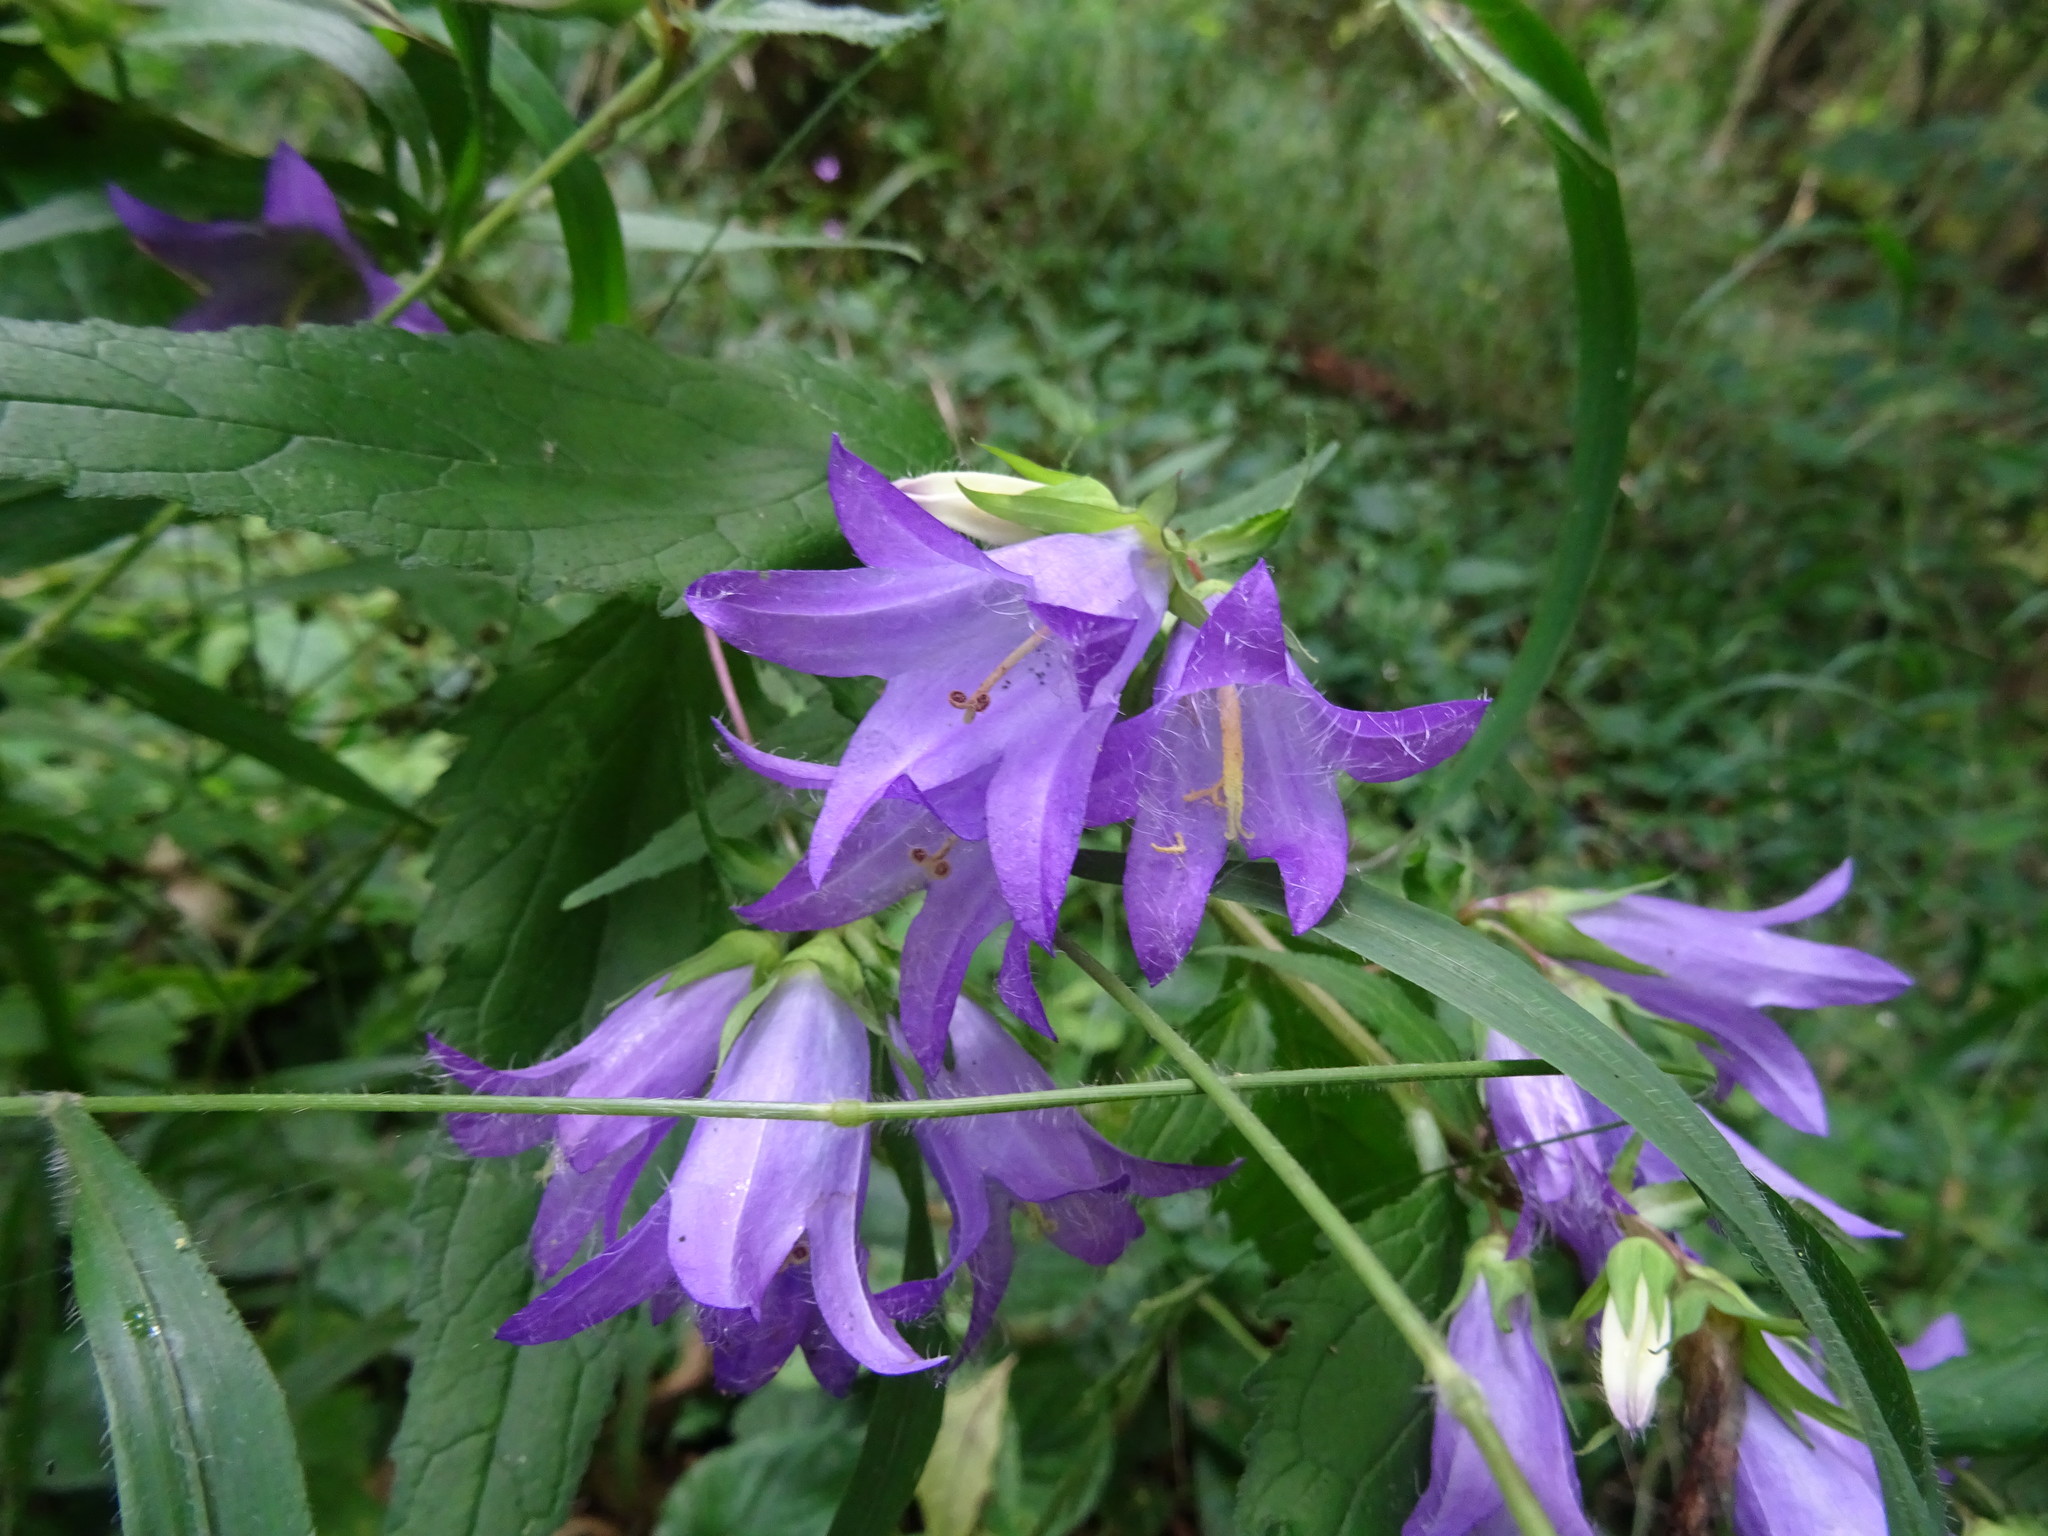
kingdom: Plantae
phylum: Tracheophyta
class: Magnoliopsida
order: Asterales
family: Campanulaceae
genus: Campanula
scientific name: Campanula trachelium
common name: Nettle-leaved bellflower
